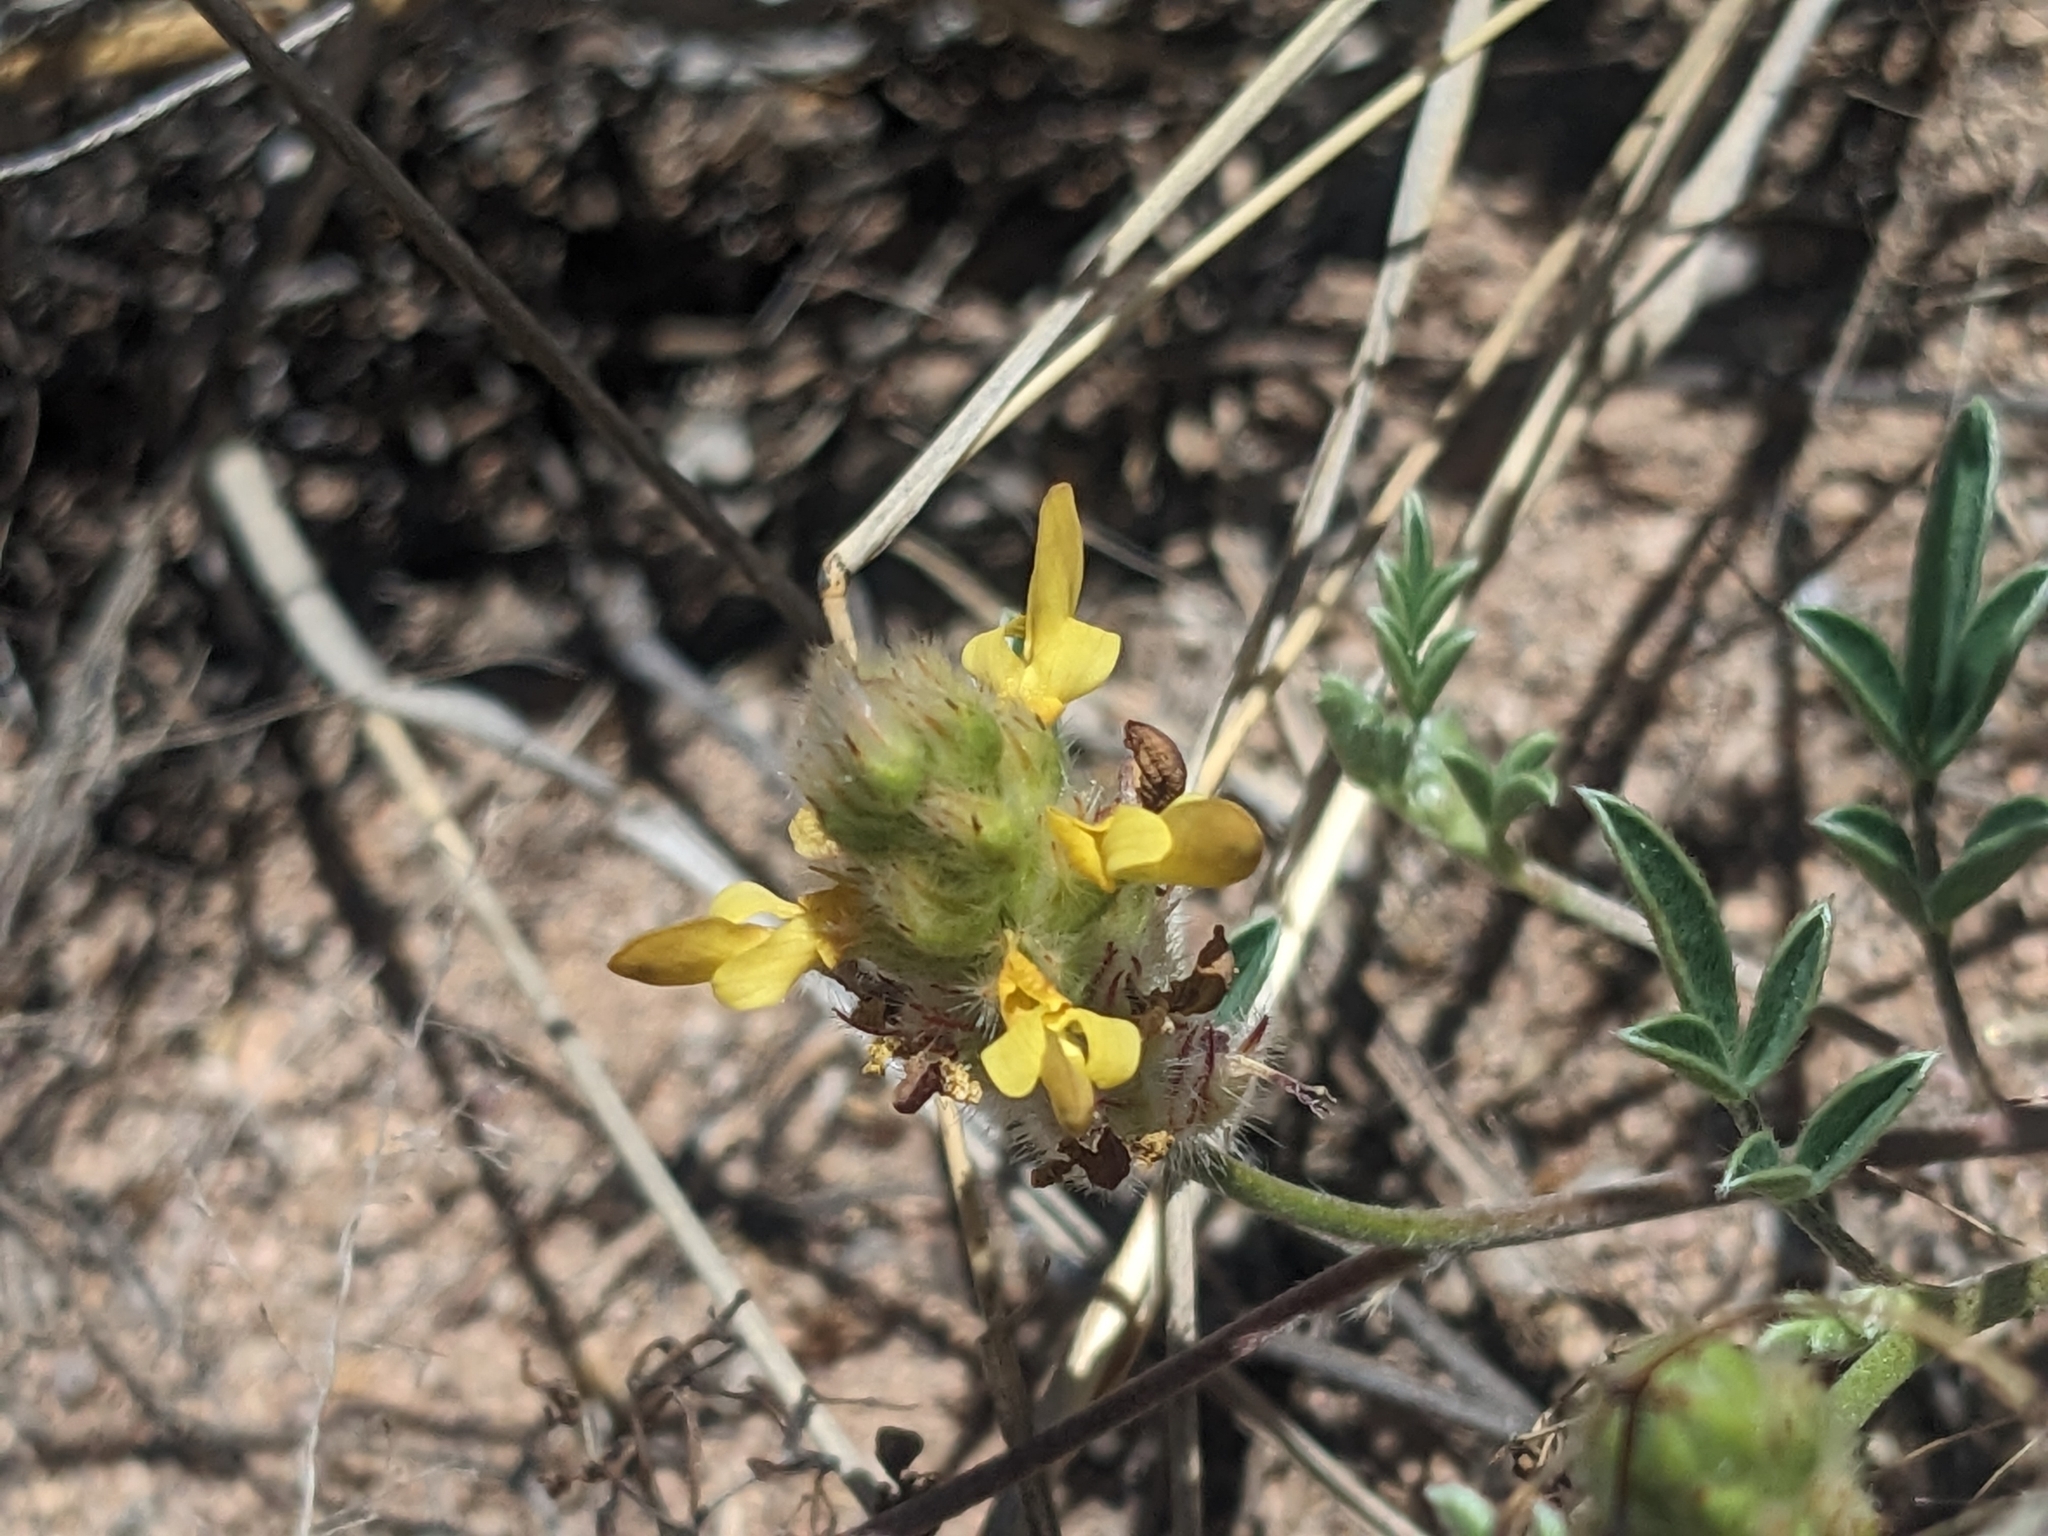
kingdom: Plantae
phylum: Tracheophyta
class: Magnoliopsida
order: Fabales
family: Fabaceae
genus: Dalea
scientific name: Dalea nana
